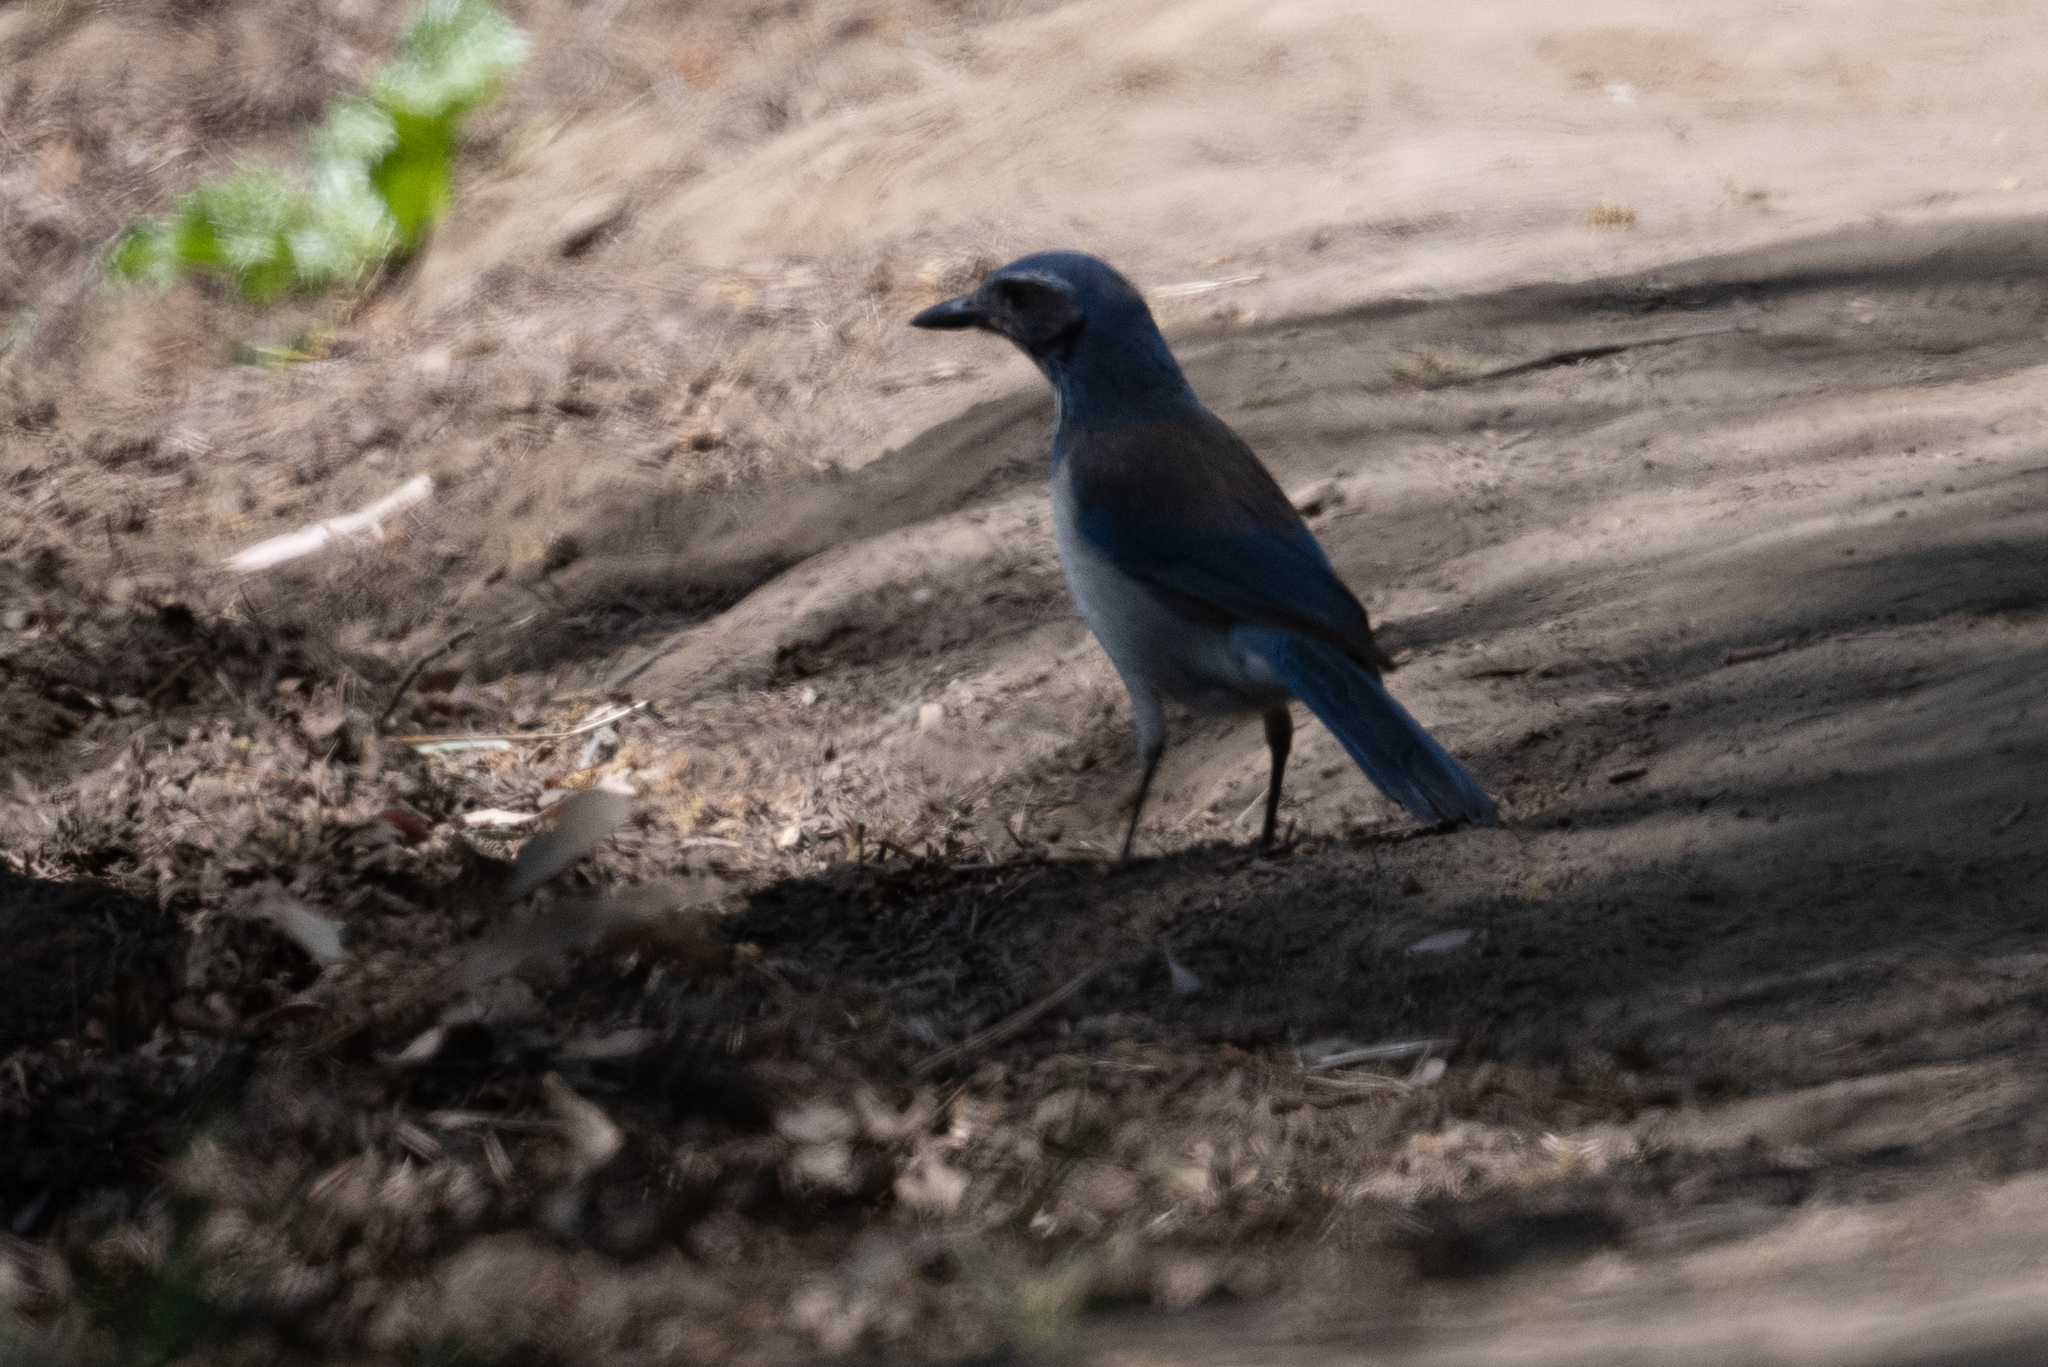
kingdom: Animalia
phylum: Chordata
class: Aves
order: Passeriformes
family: Corvidae
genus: Aphelocoma
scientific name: Aphelocoma californica
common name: California scrub-jay
